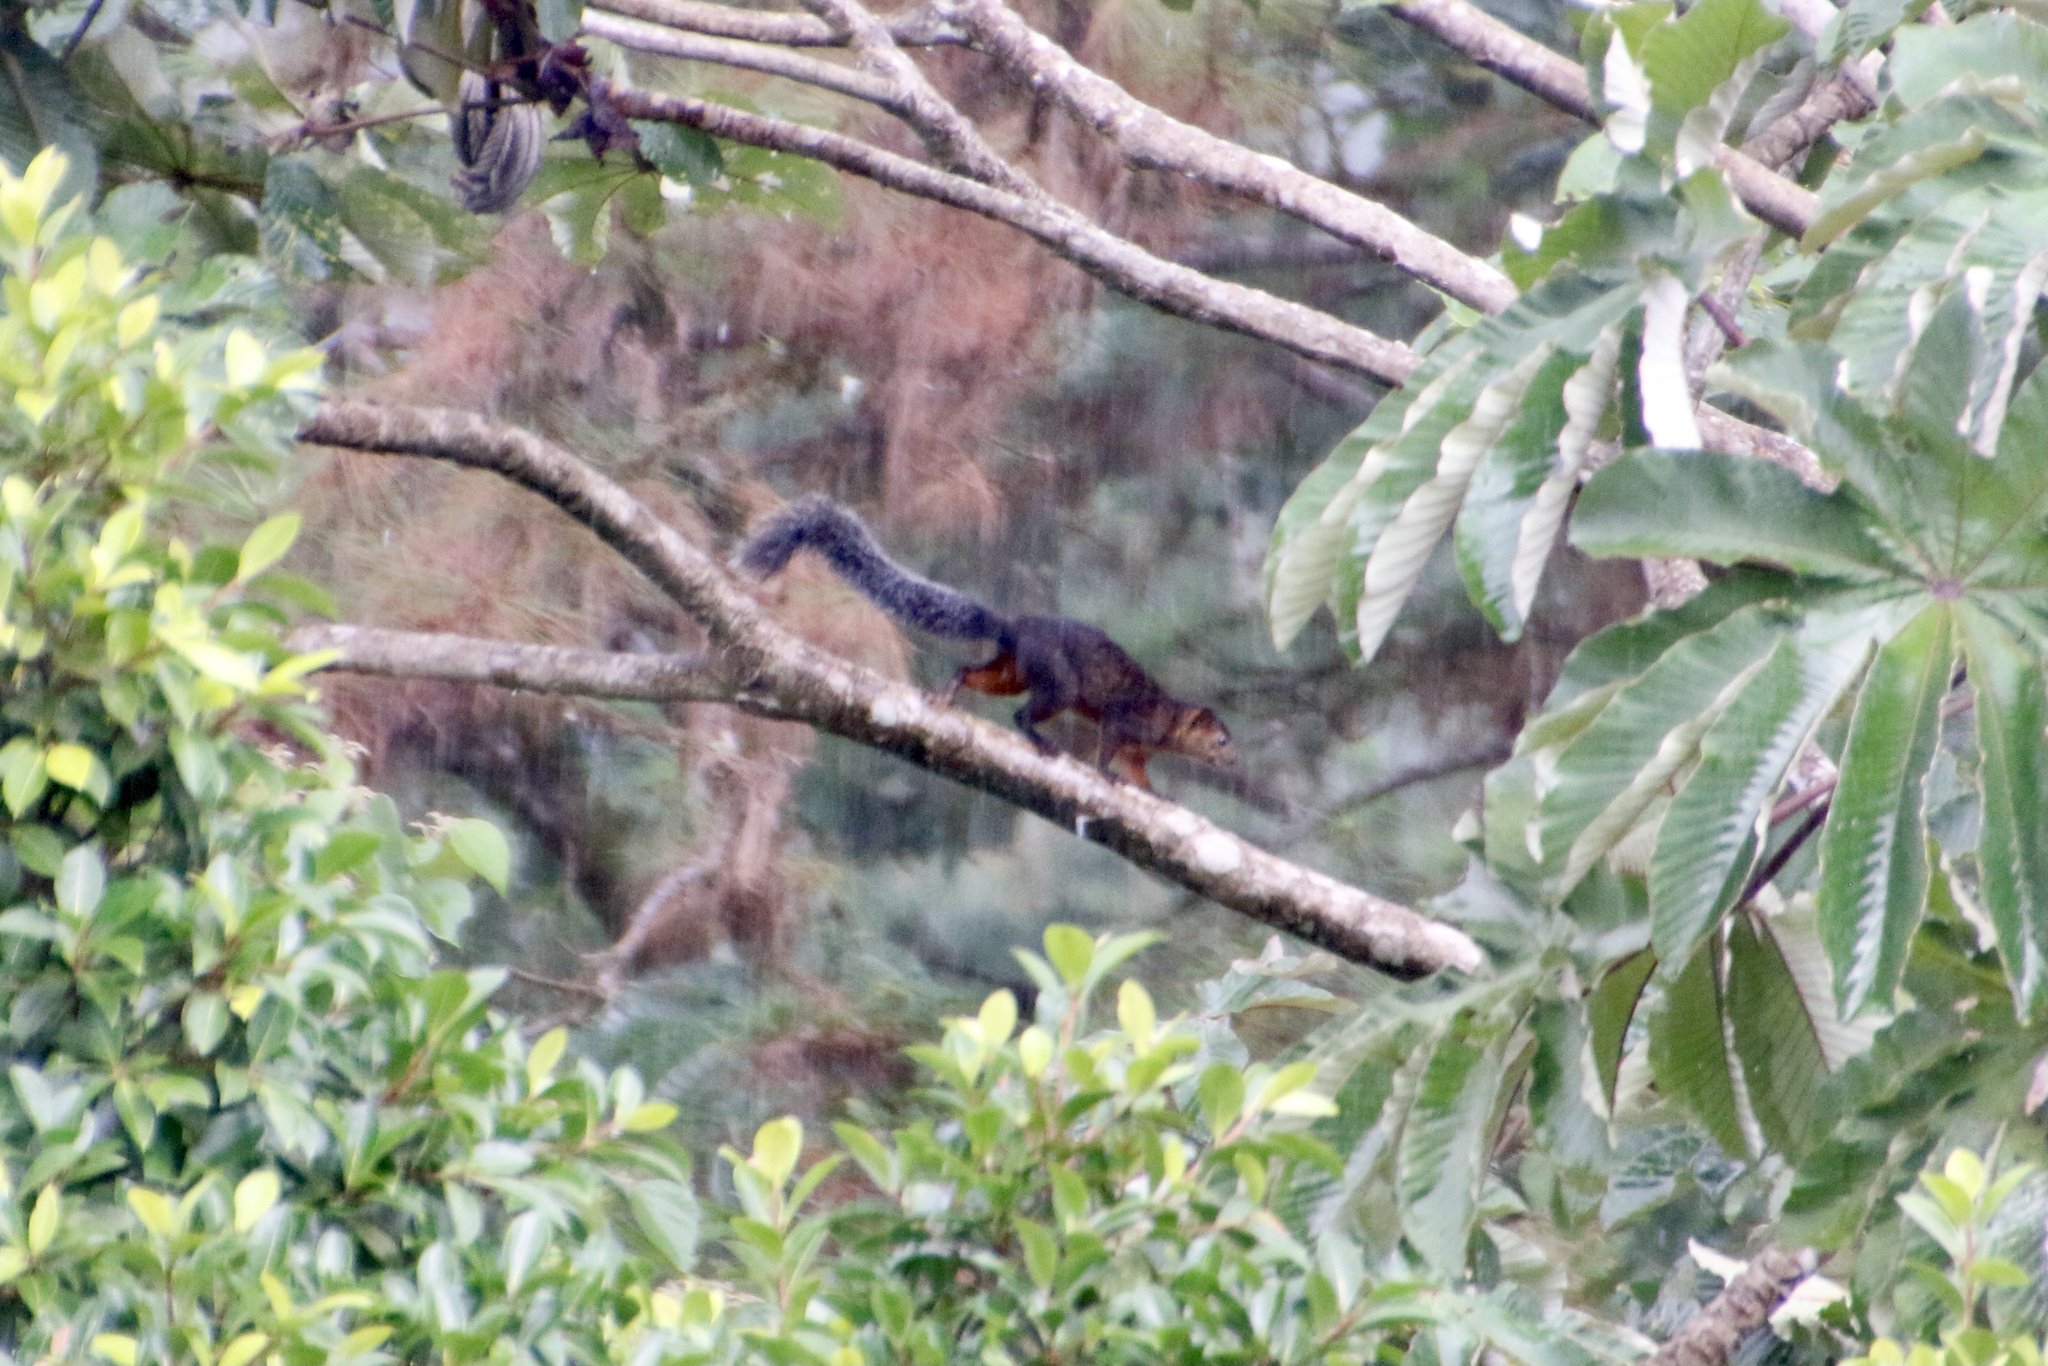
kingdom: Animalia
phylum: Chordata
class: Mammalia
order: Rodentia
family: Sciuridae
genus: Sciurus
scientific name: Sciurus variegatoides
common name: Variegated squirrel
